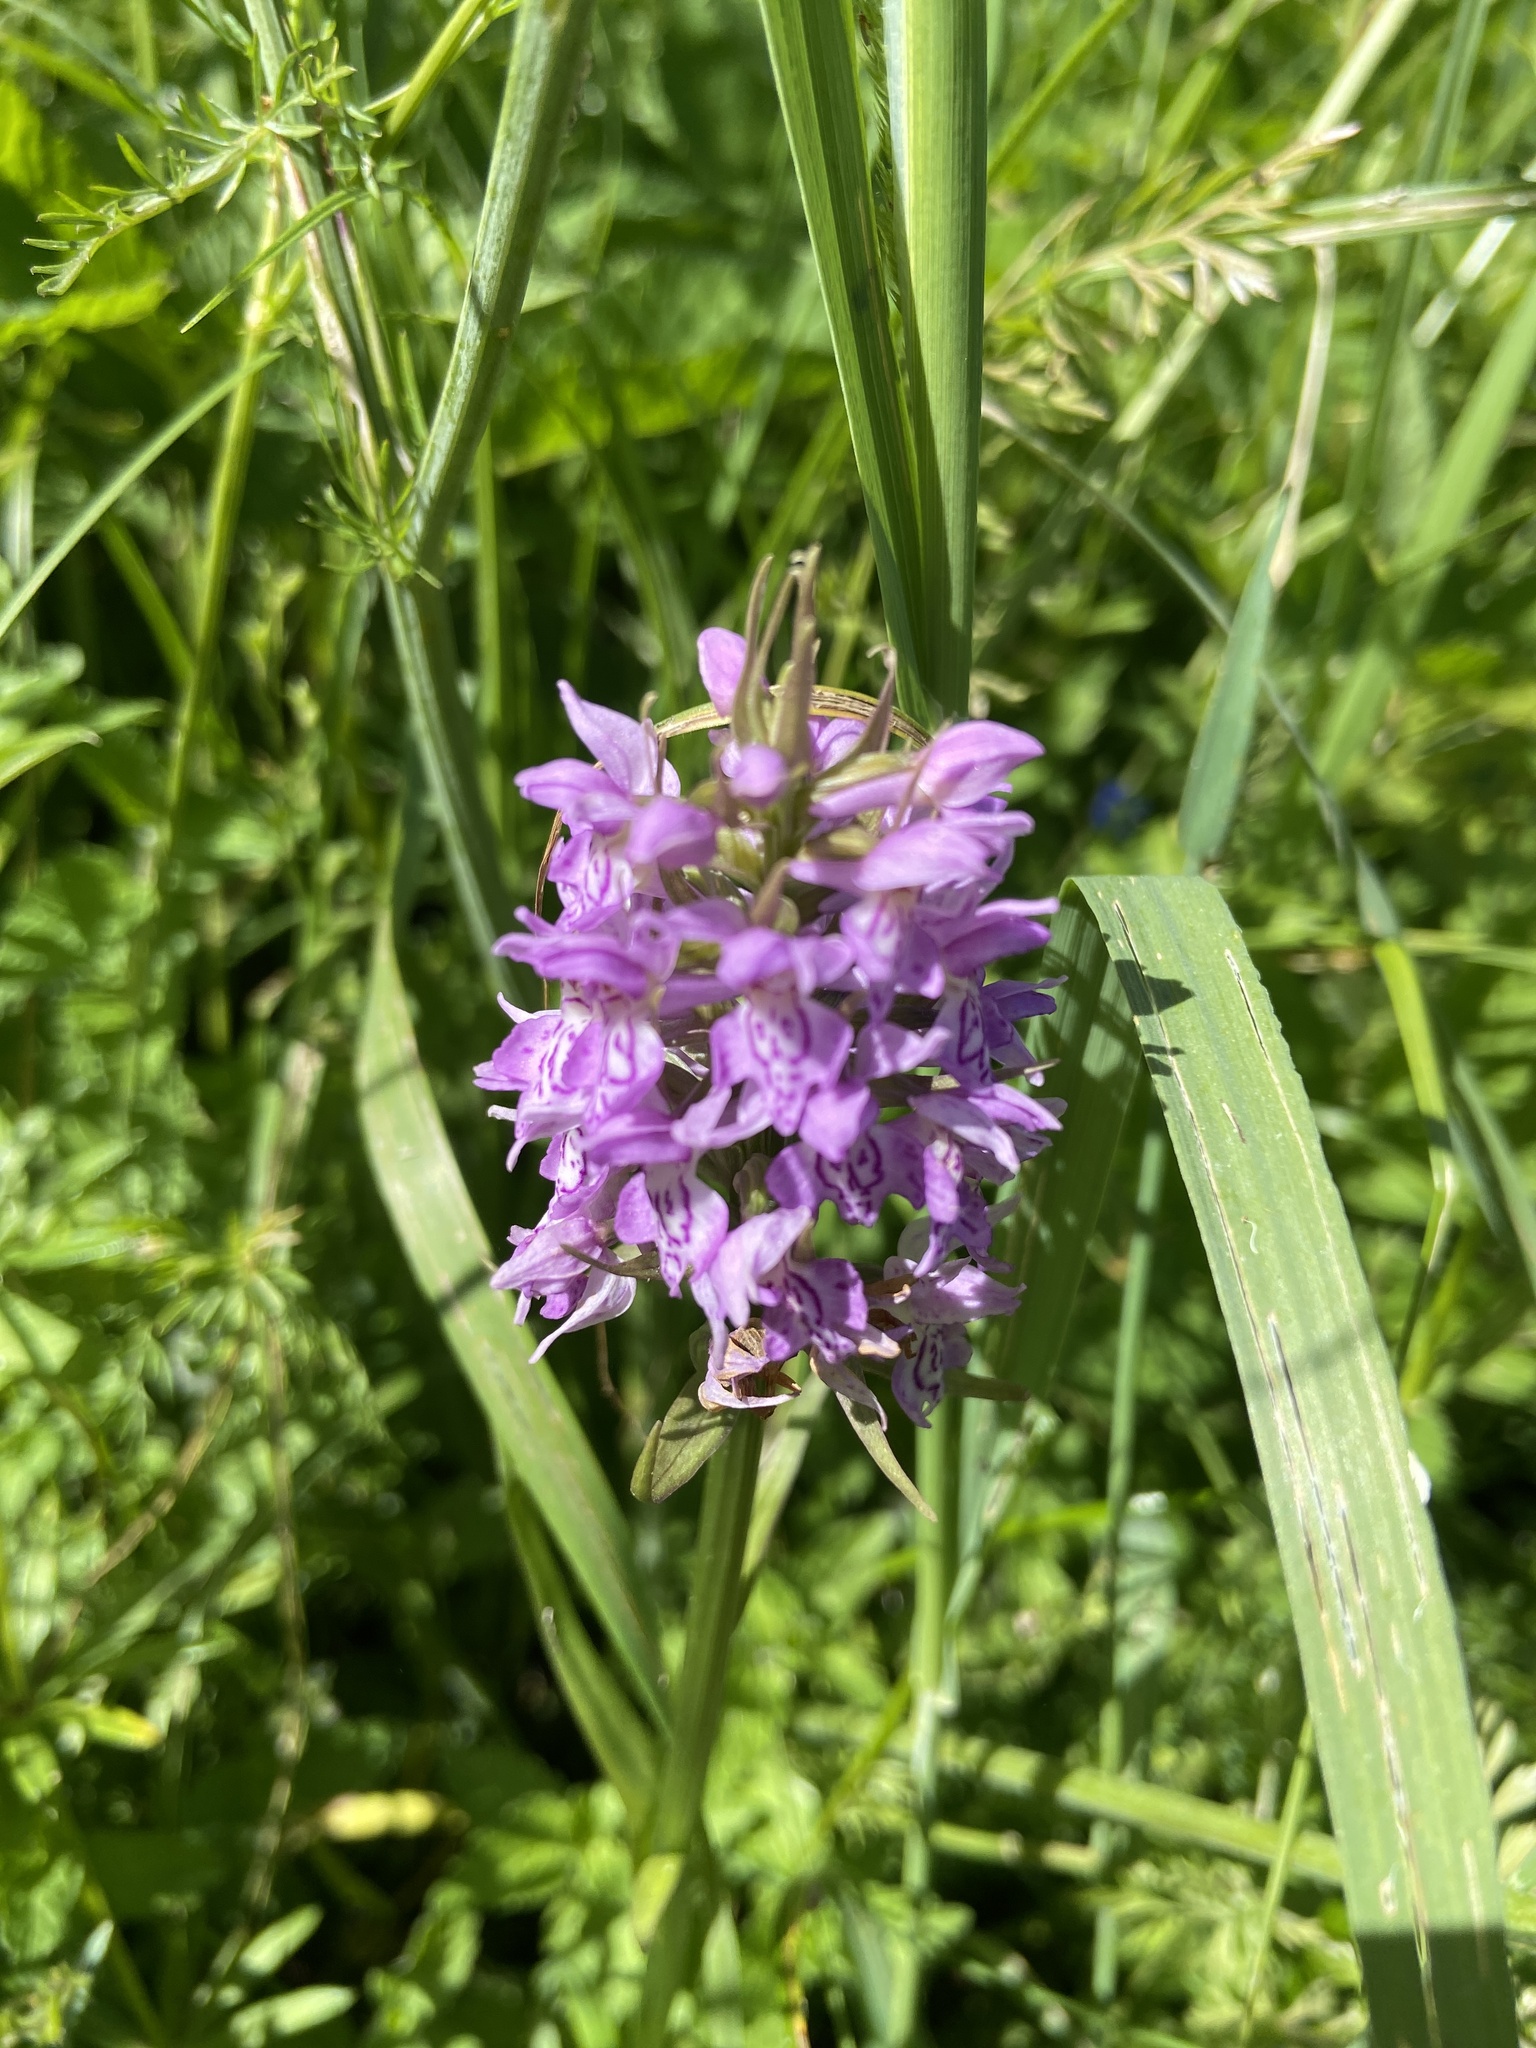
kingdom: Plantae
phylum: Tracheophyta
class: Liliopsida
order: Asparagales
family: Orchidaceae
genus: Dactylorhiza
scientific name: Dactylorhiza majalis
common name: Marsh orchid
